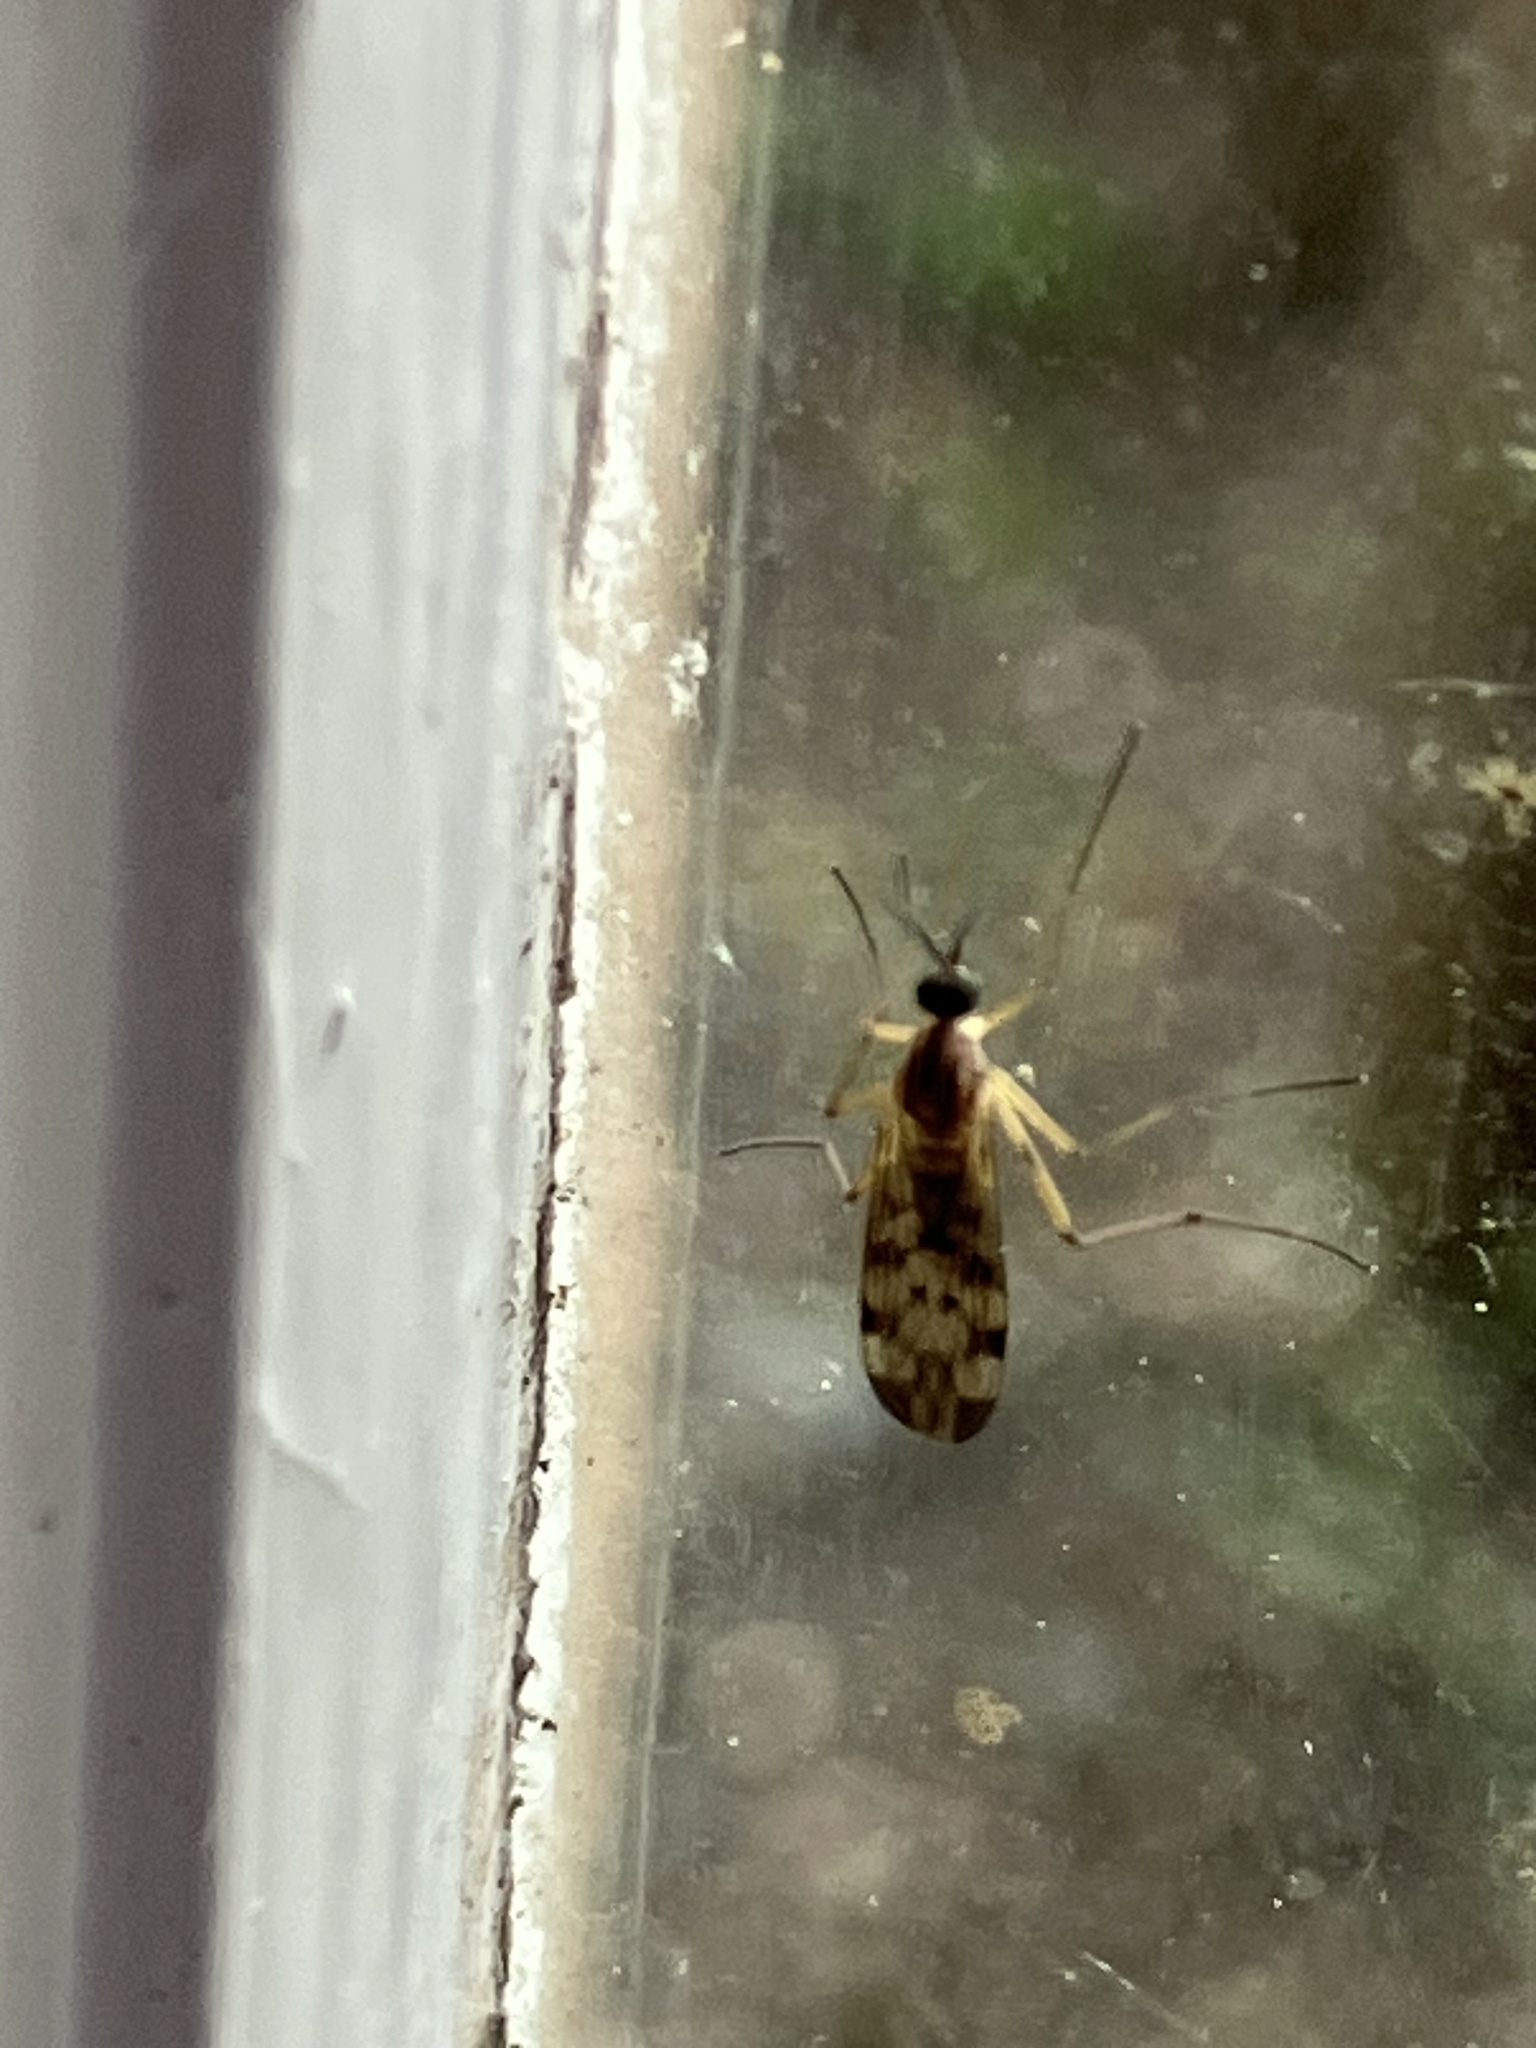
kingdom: Animalia
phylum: Arthropoda
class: Insecta
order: Diptera
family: Anisopodidae
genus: Sylvicola
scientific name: Sylvicola
